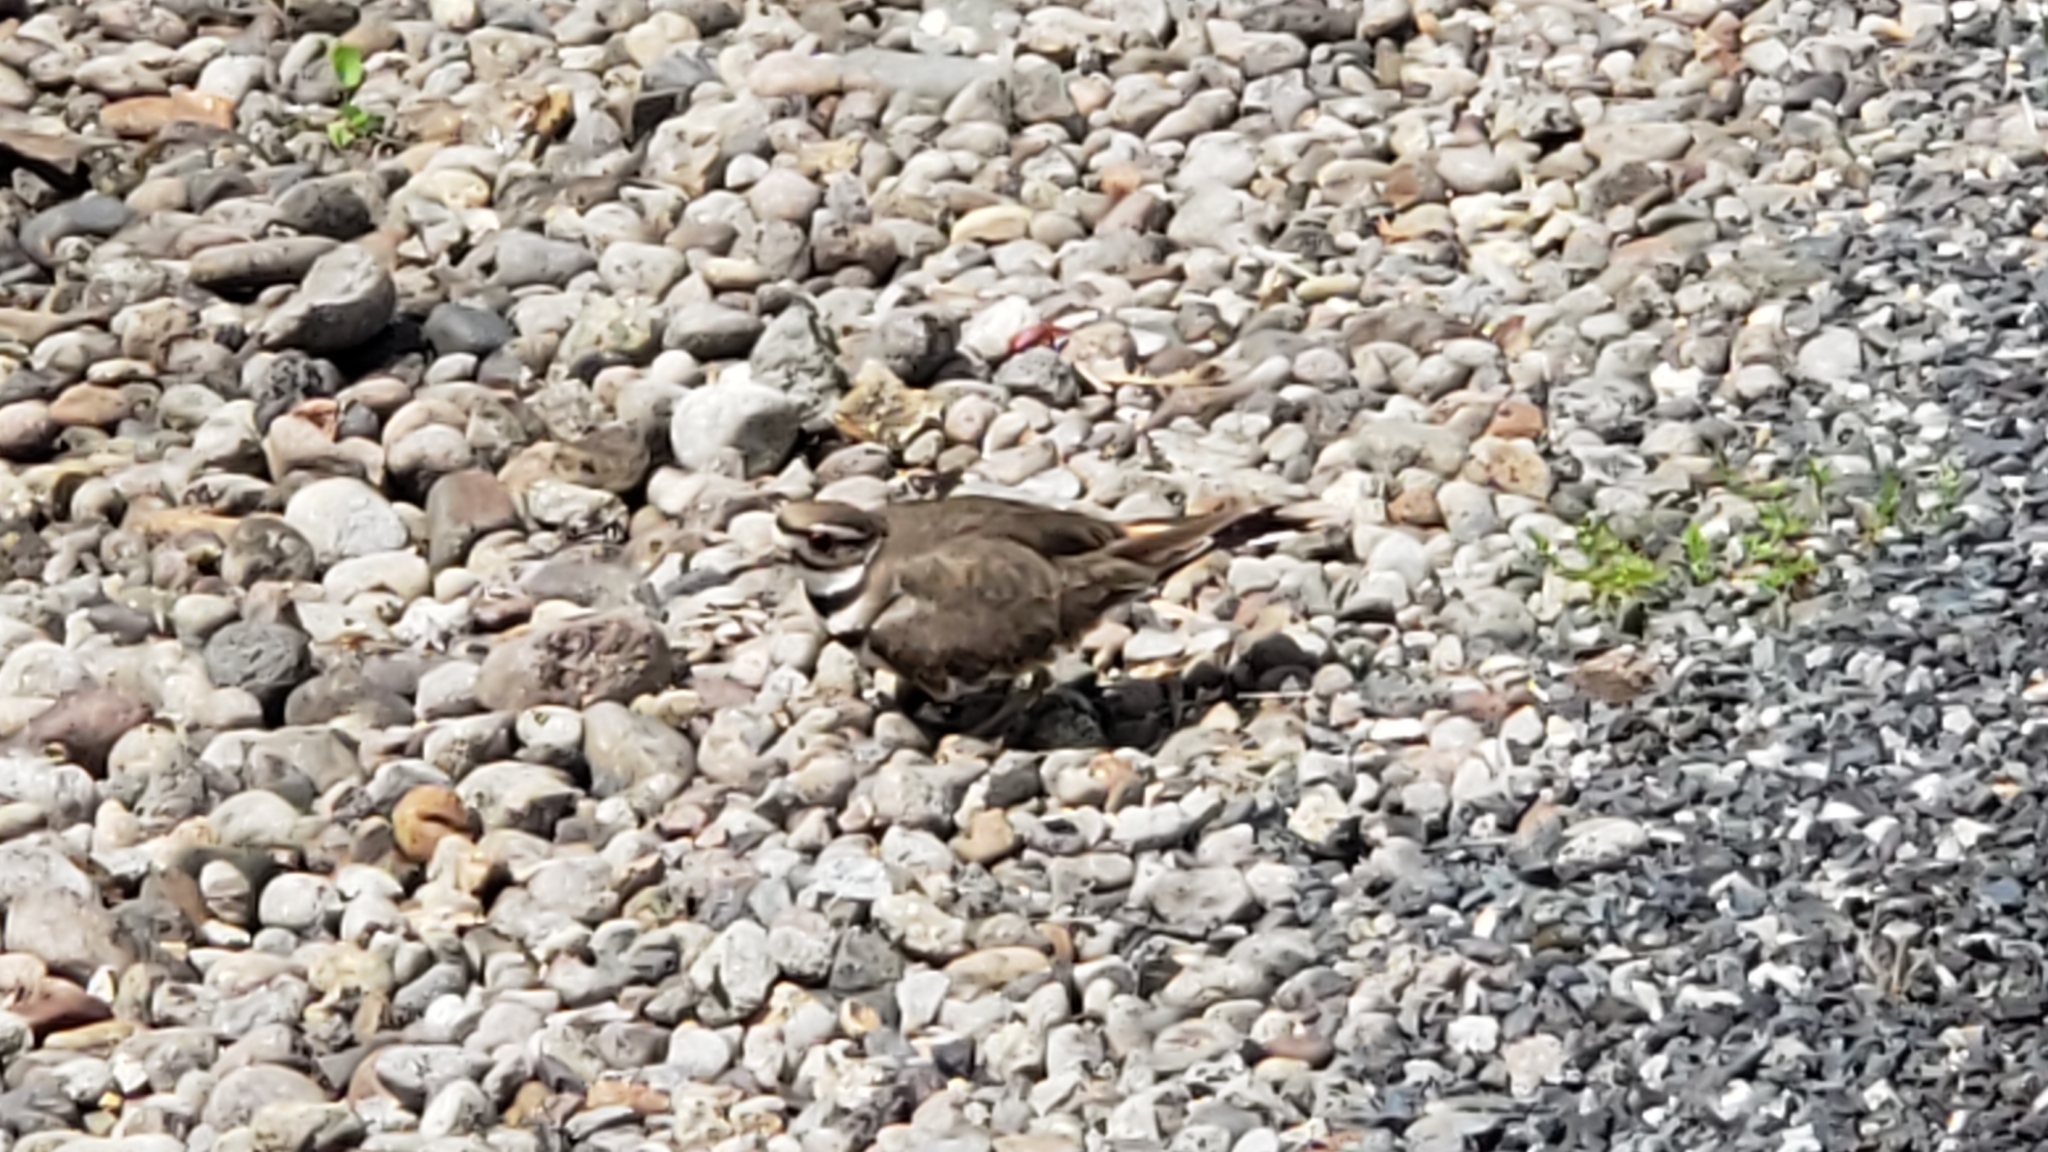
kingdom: Animalia
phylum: Chordata
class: Aves
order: Charadriiformes
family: Charadriidae
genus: Charadrius
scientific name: Charadrius vociferus
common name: Killdeer
